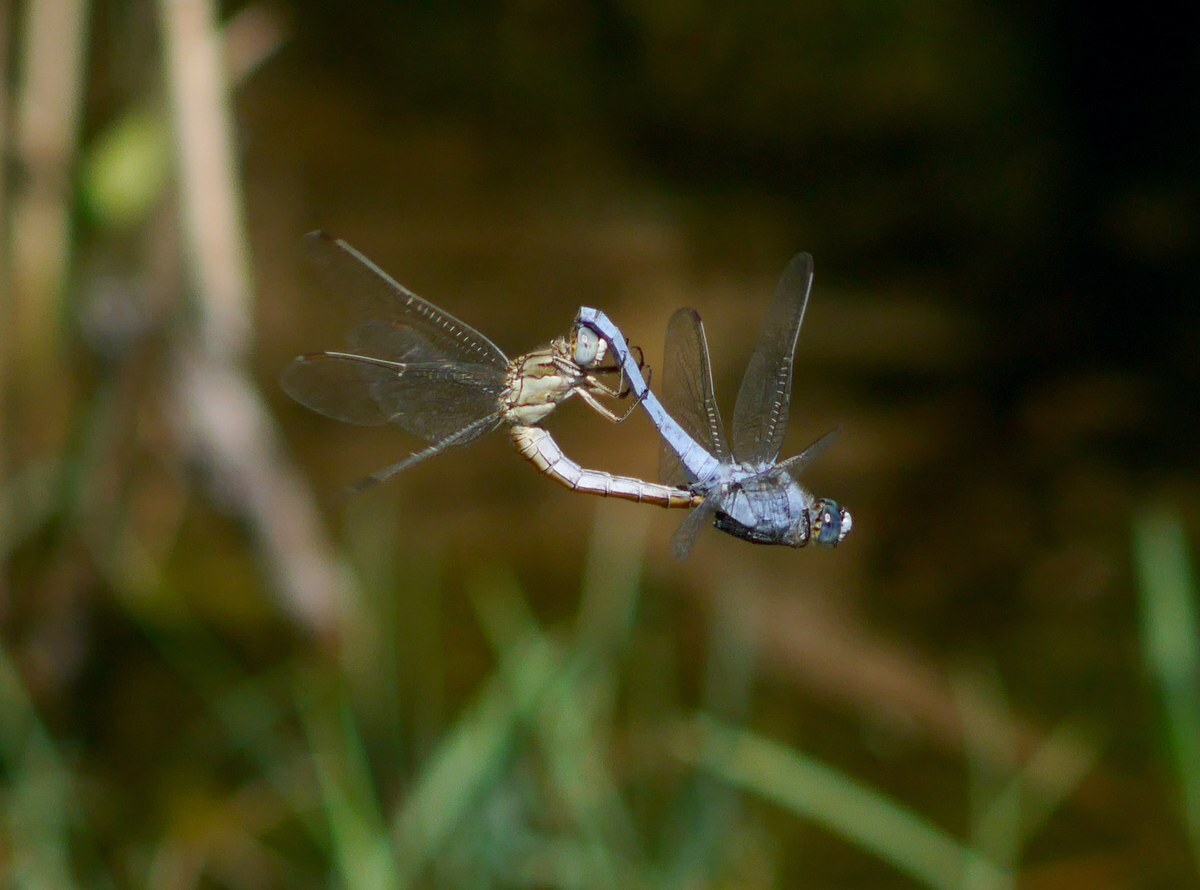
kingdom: Animalia
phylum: Arthropoda
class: Insecta
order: Odonata
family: Libellulidae
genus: Orthetrum
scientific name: Orthetrum brunneum
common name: Southern skimmer
